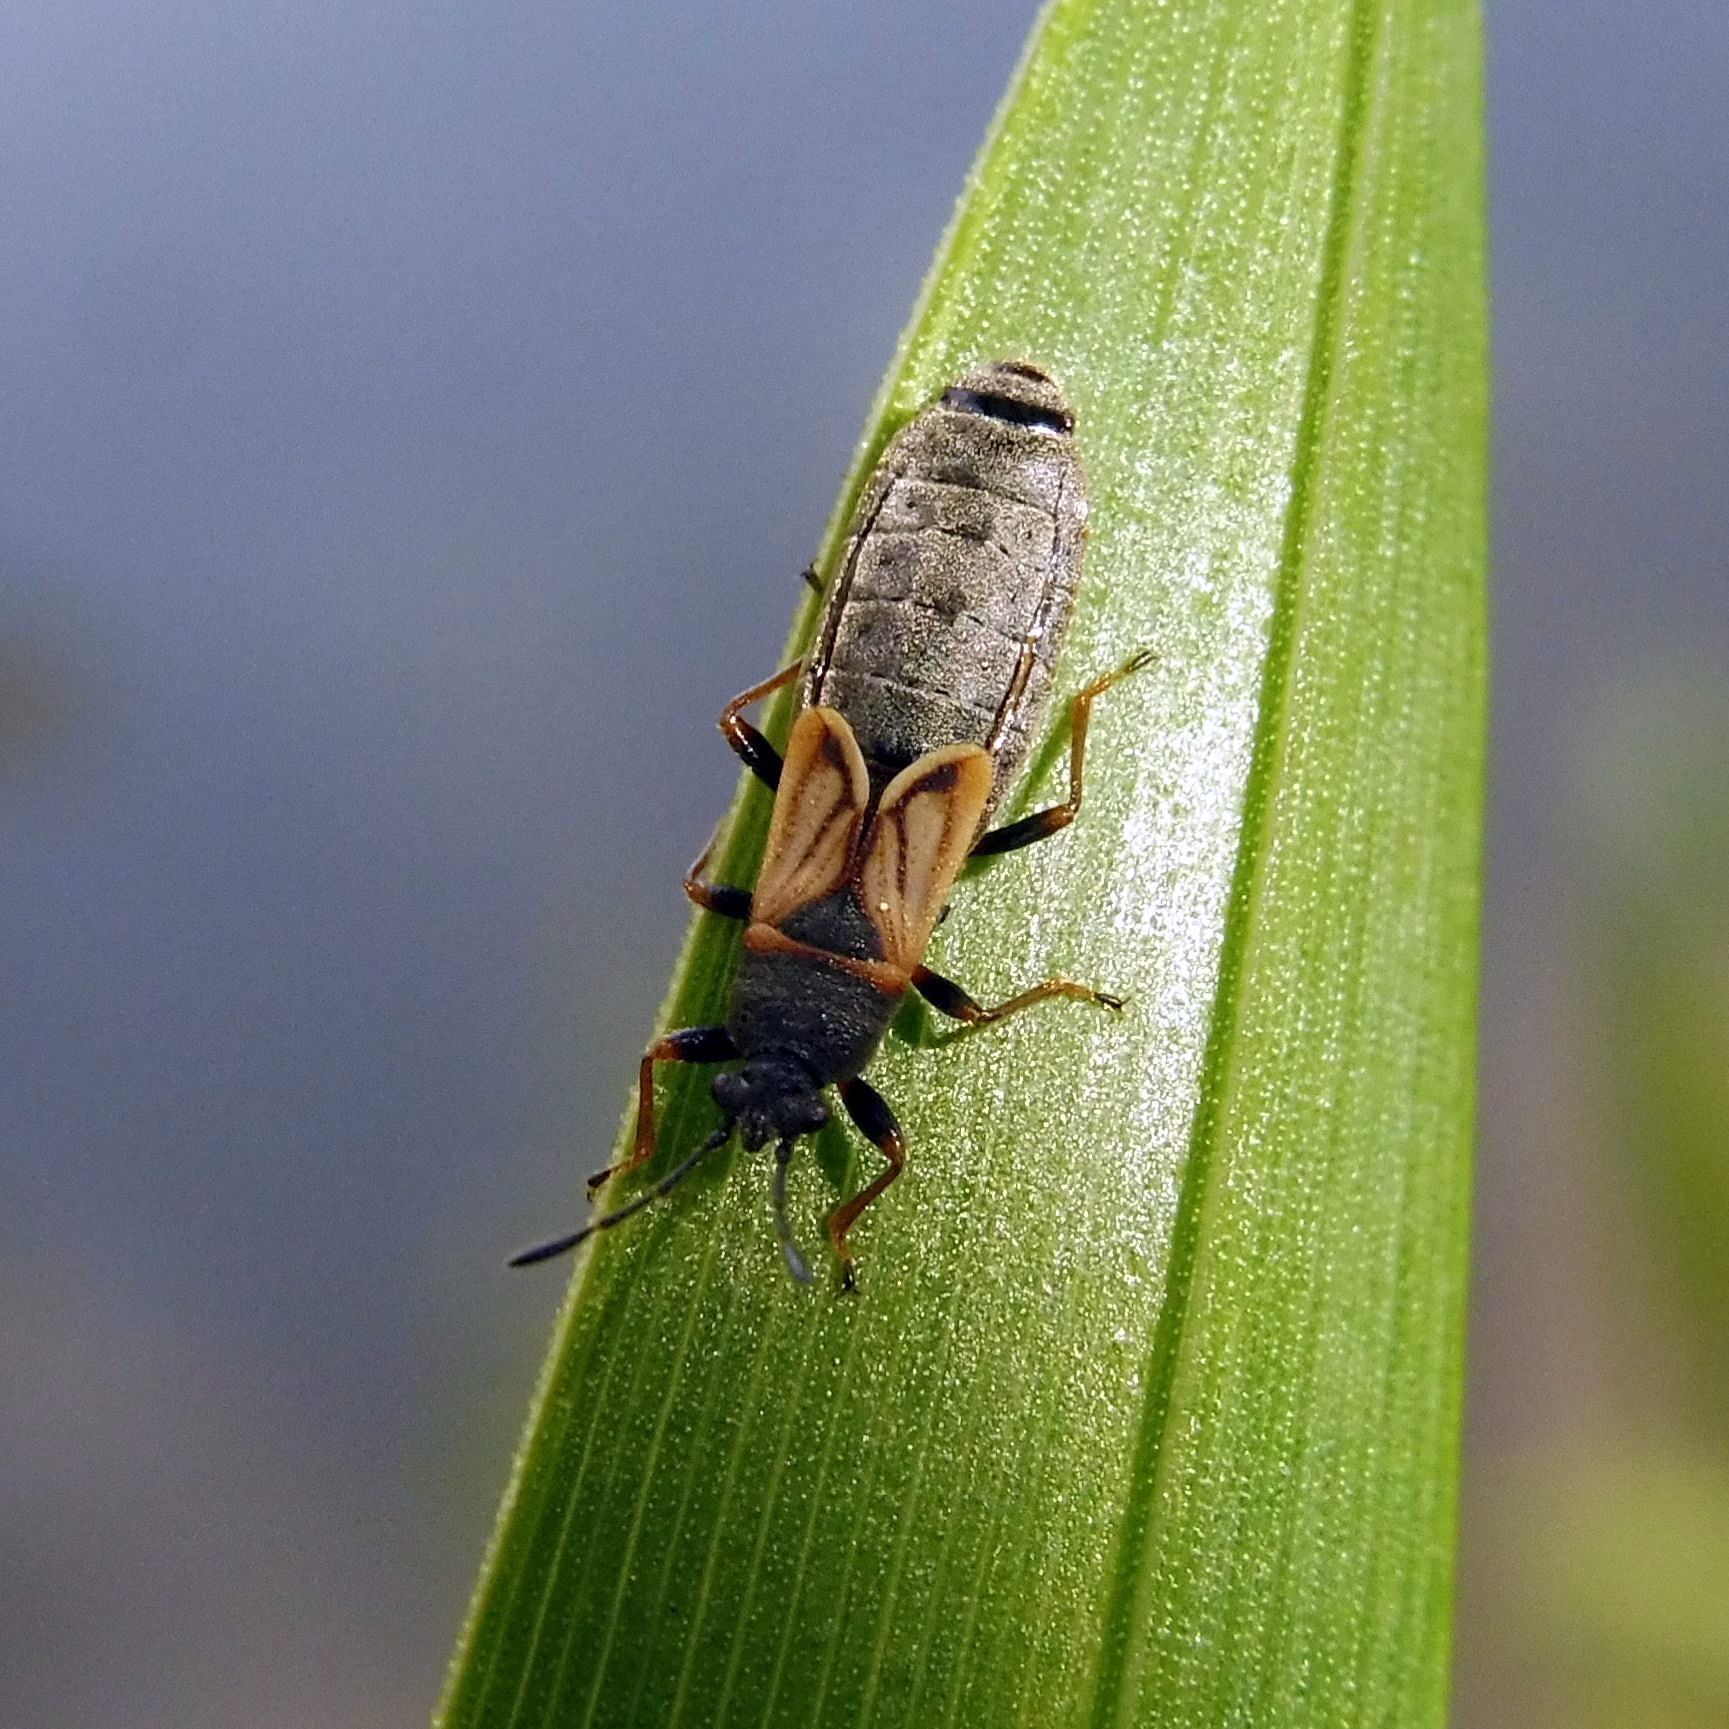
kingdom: Animalia
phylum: Arthropoda
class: Insecta
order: Hemiptera
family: Blissidae
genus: Ischnodemus
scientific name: Ischnodemus sabuleti
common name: European cinchbug
